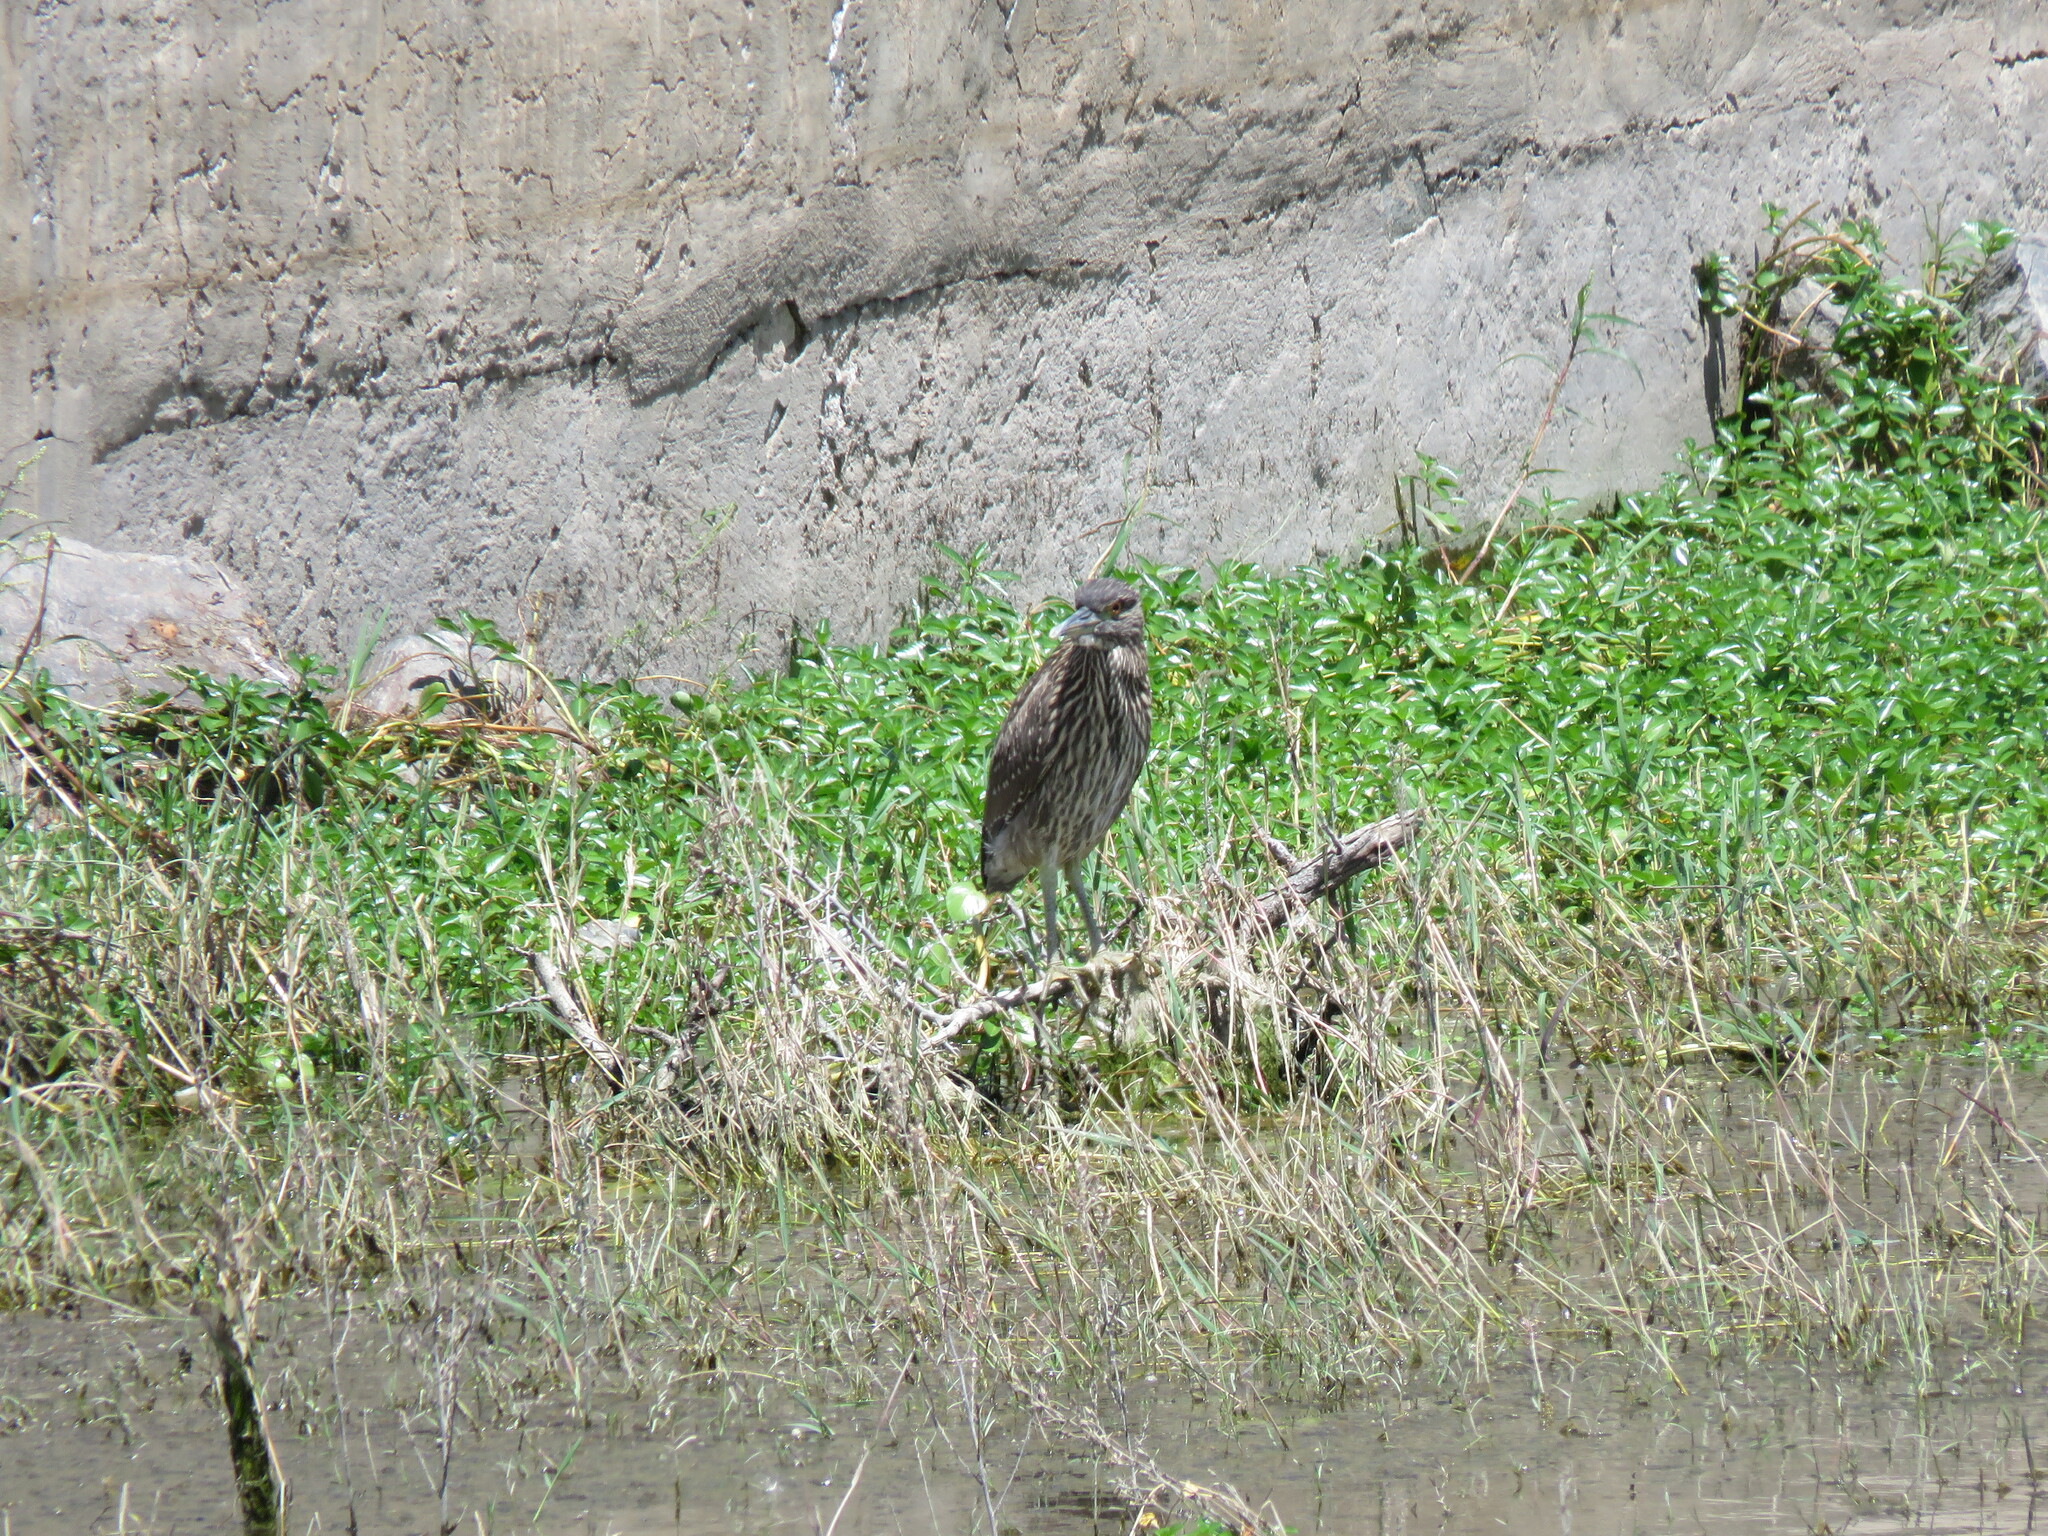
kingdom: Animalia
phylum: Chordata
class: Aves
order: Pelecaniformes
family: Ardeidae
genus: Nycticorax
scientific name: Nycticorax nycticorax
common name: Black-crowned night heron
